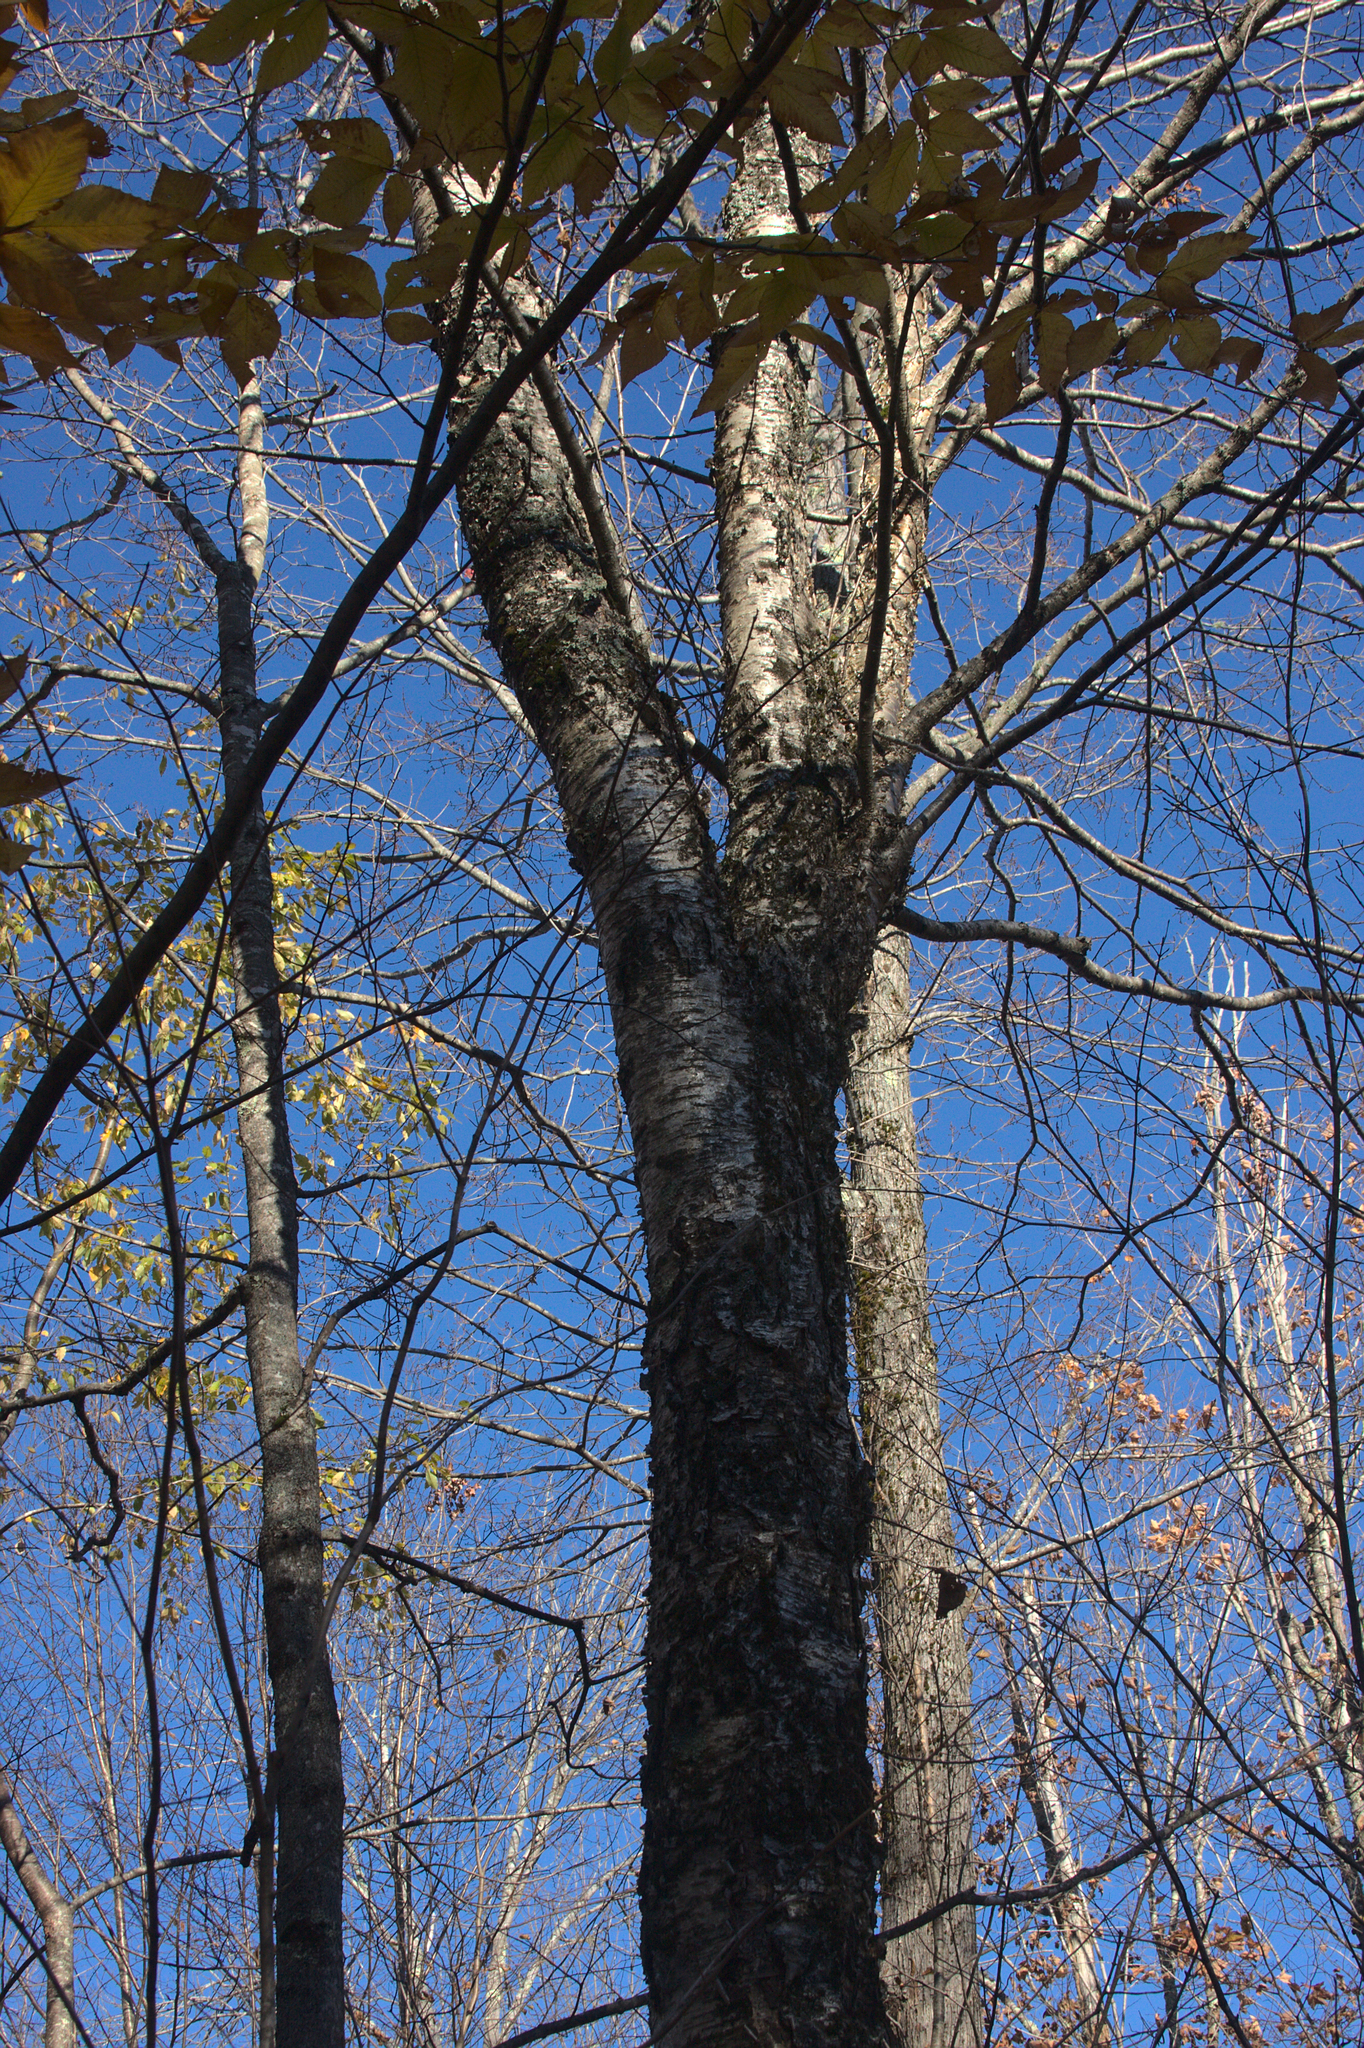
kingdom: Plantae
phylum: Tracheophyta
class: Magnoliopsida
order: Fagales
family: Betulaceae
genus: Betula
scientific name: Betula alleghaniensis
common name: Yellow birch
